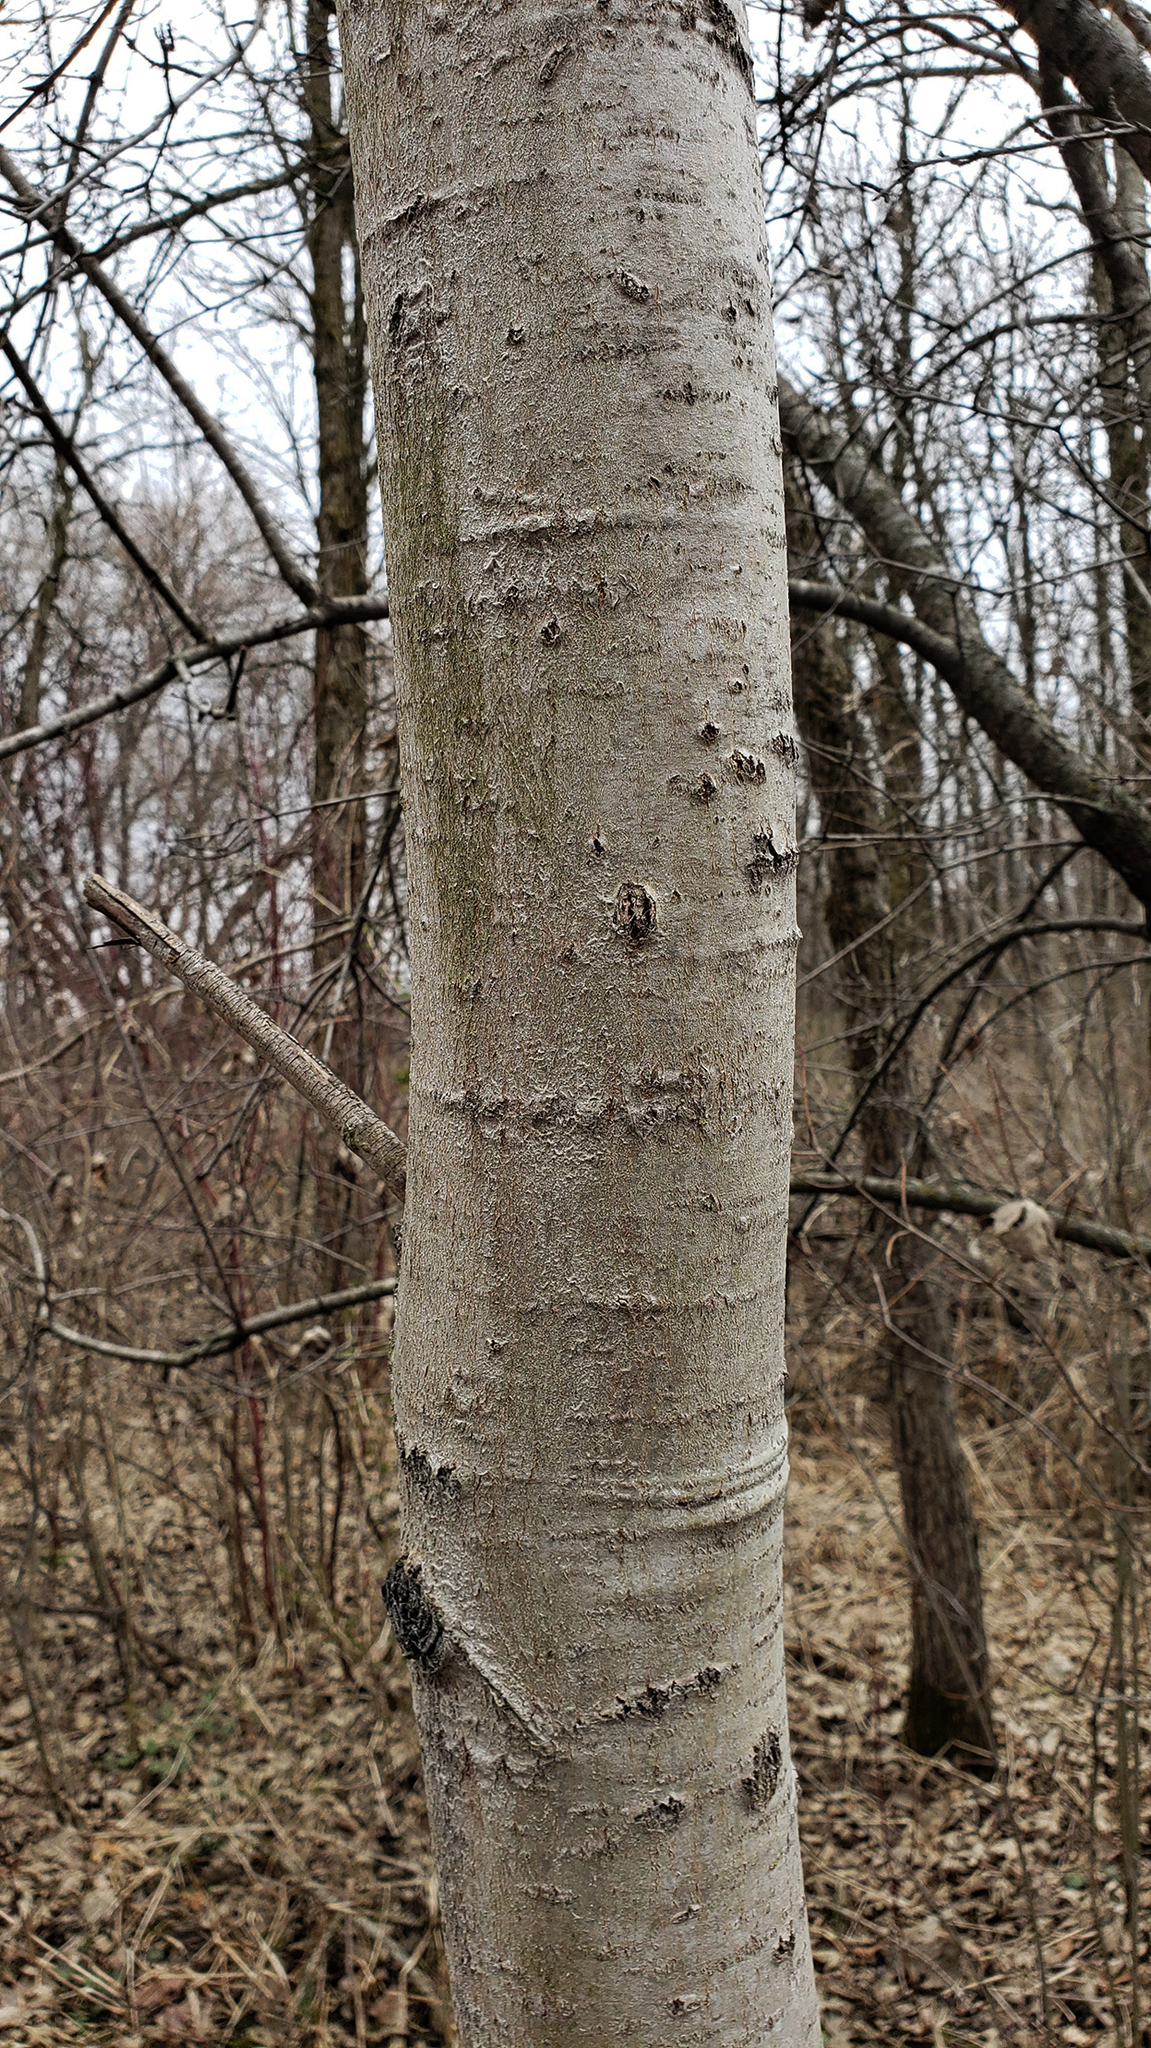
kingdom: Plantae
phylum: Tracheophyta
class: Magnoliopsida
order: Malpighiales
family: Salicaceae
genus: Populus
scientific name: Populus tremuloides
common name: Quaking aspen
